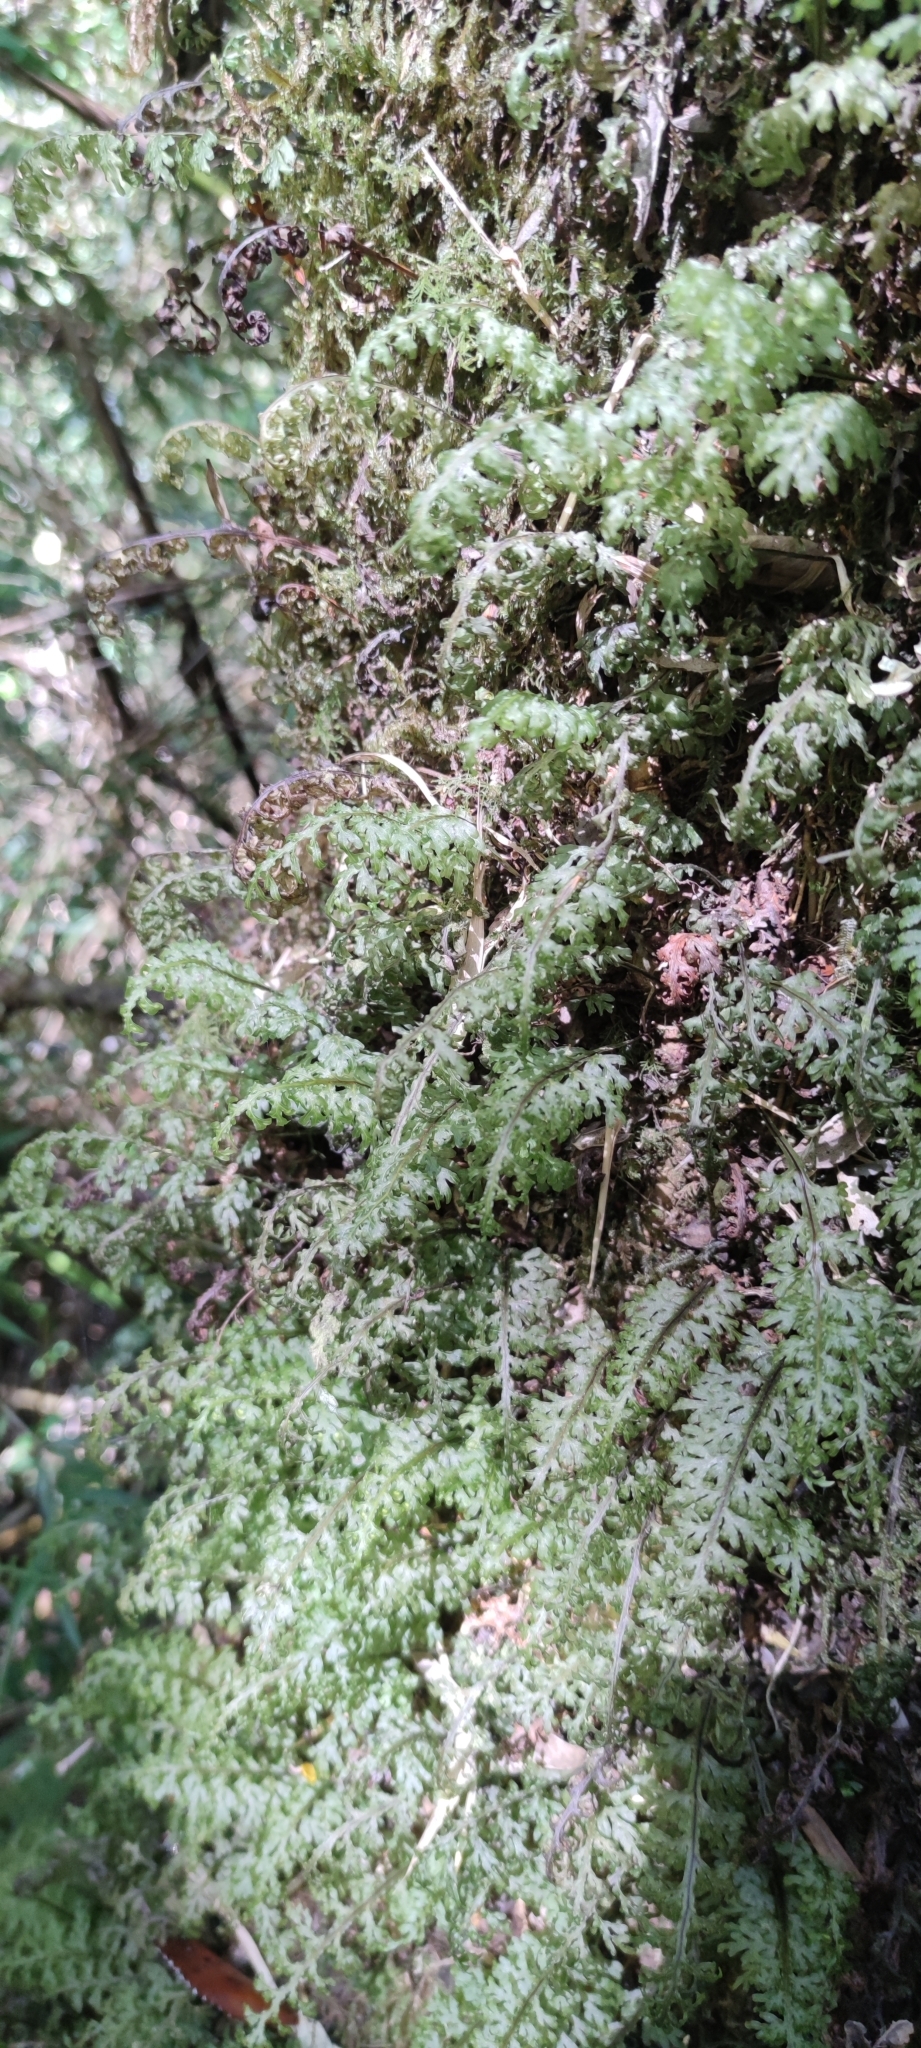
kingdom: Plantae
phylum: Tracheophyta
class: Polypodiopsida
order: Hymenophyllales
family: Hymenophyllaceae
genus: Hymenophyllum
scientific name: Hymenophyllum caudiculatum
